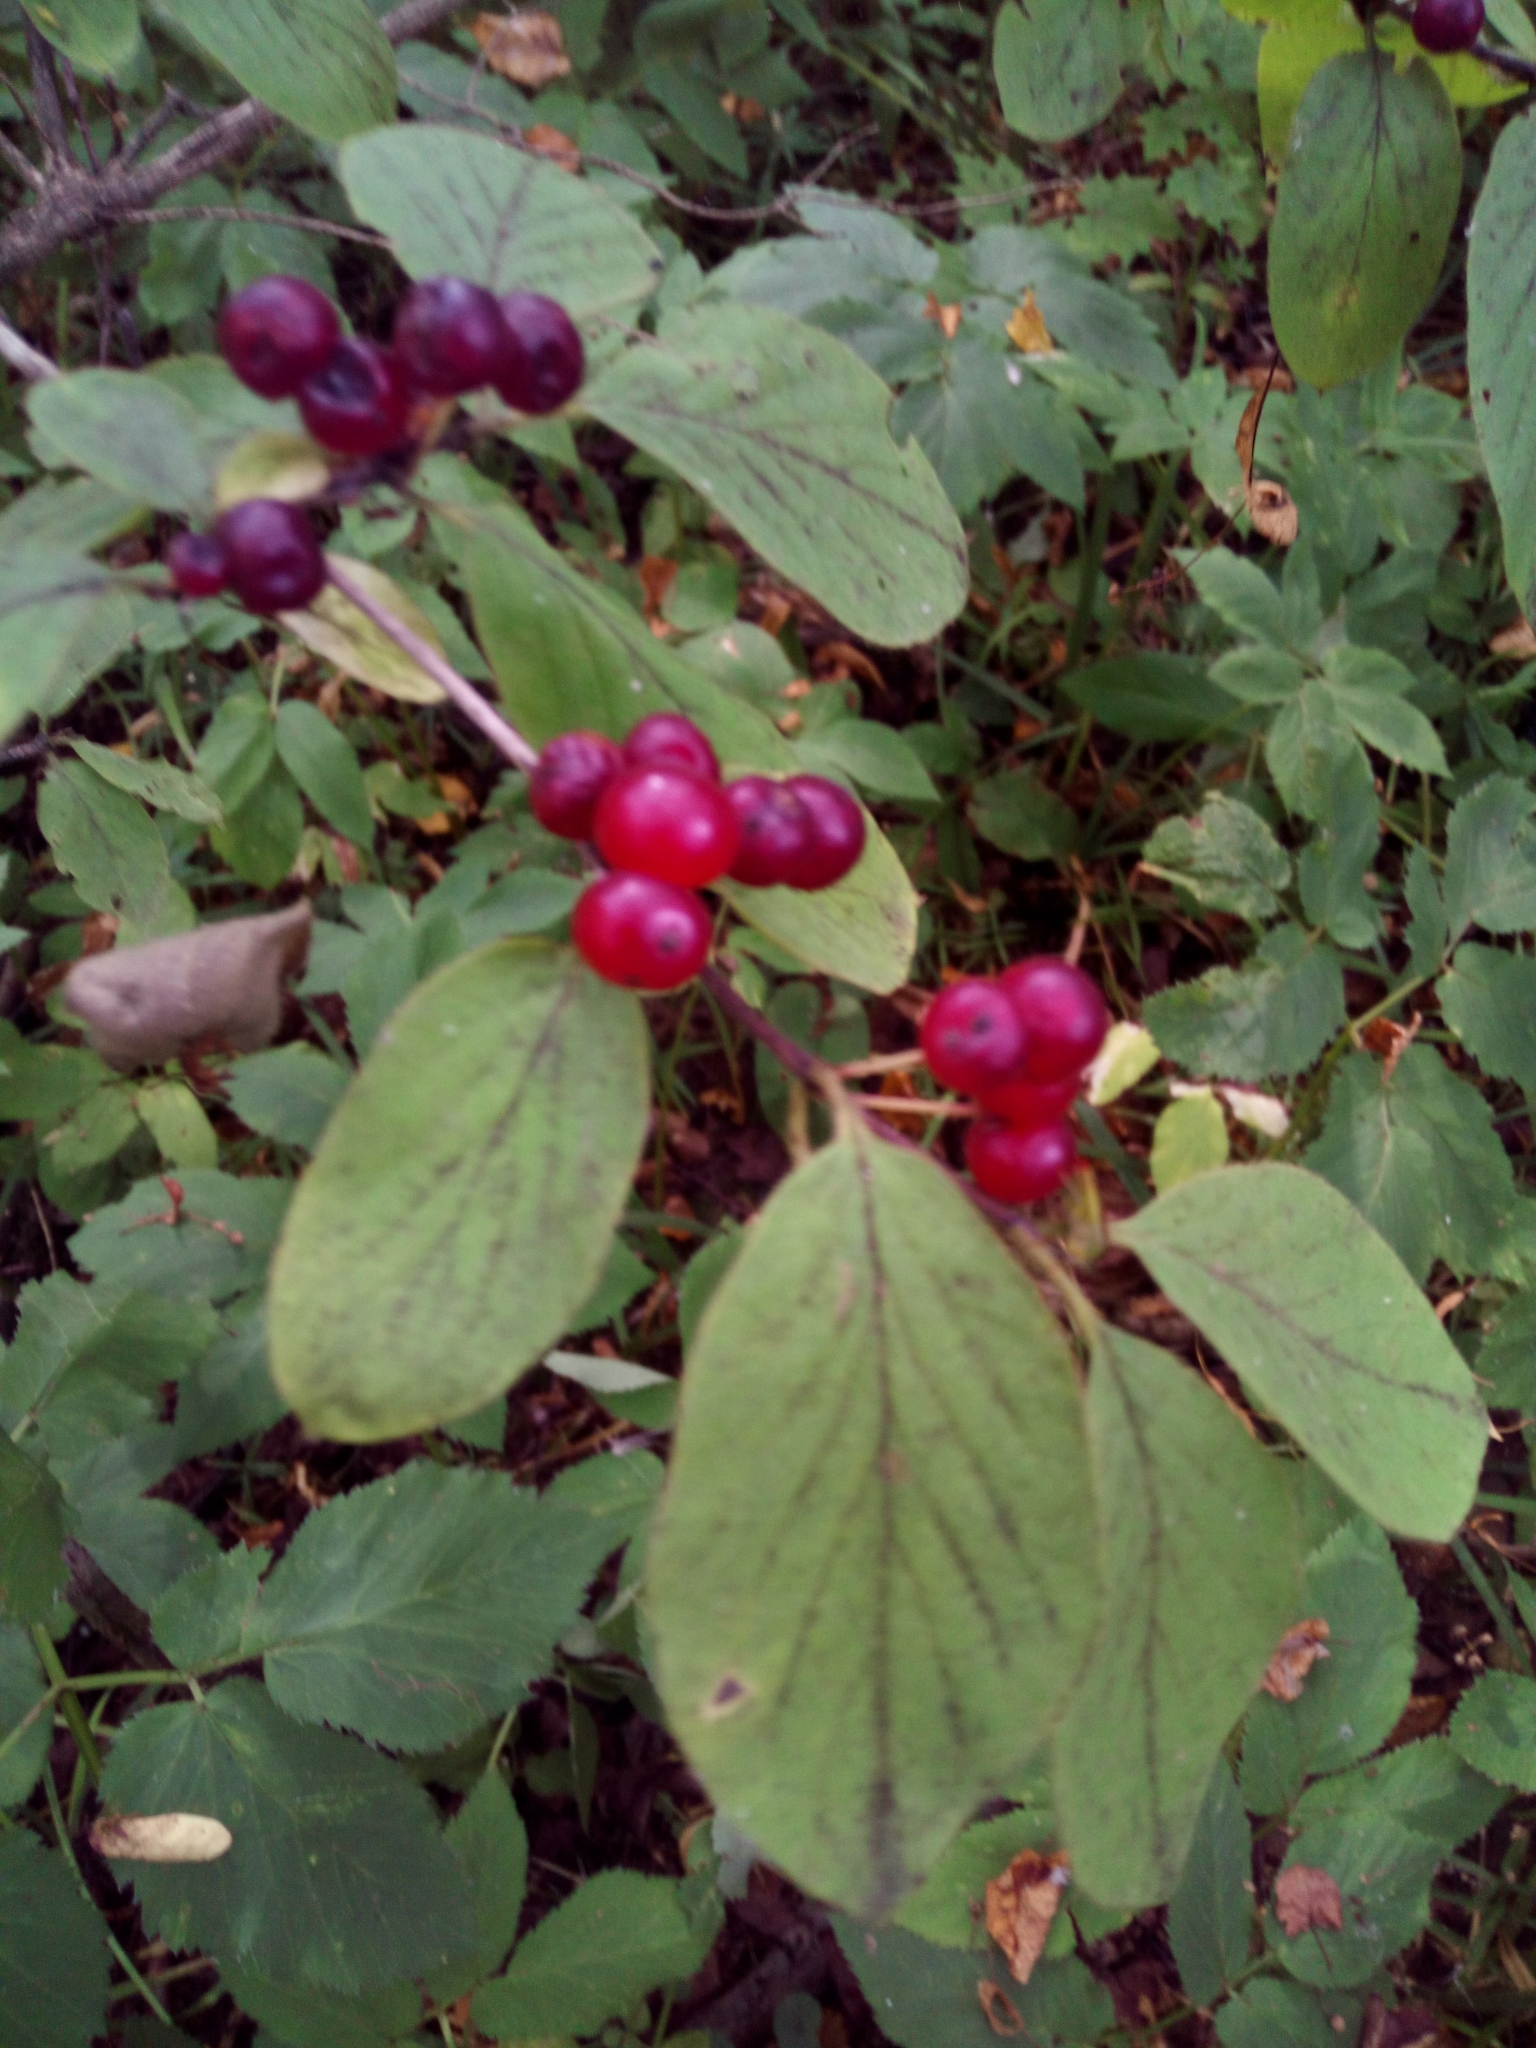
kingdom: Plantae
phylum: Tracheophyta
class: Magnoliopsida
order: Dipsacales
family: Caprifoliaceae
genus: Lonicera
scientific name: Lonicera xylosteum
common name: Fly honeysuckle
